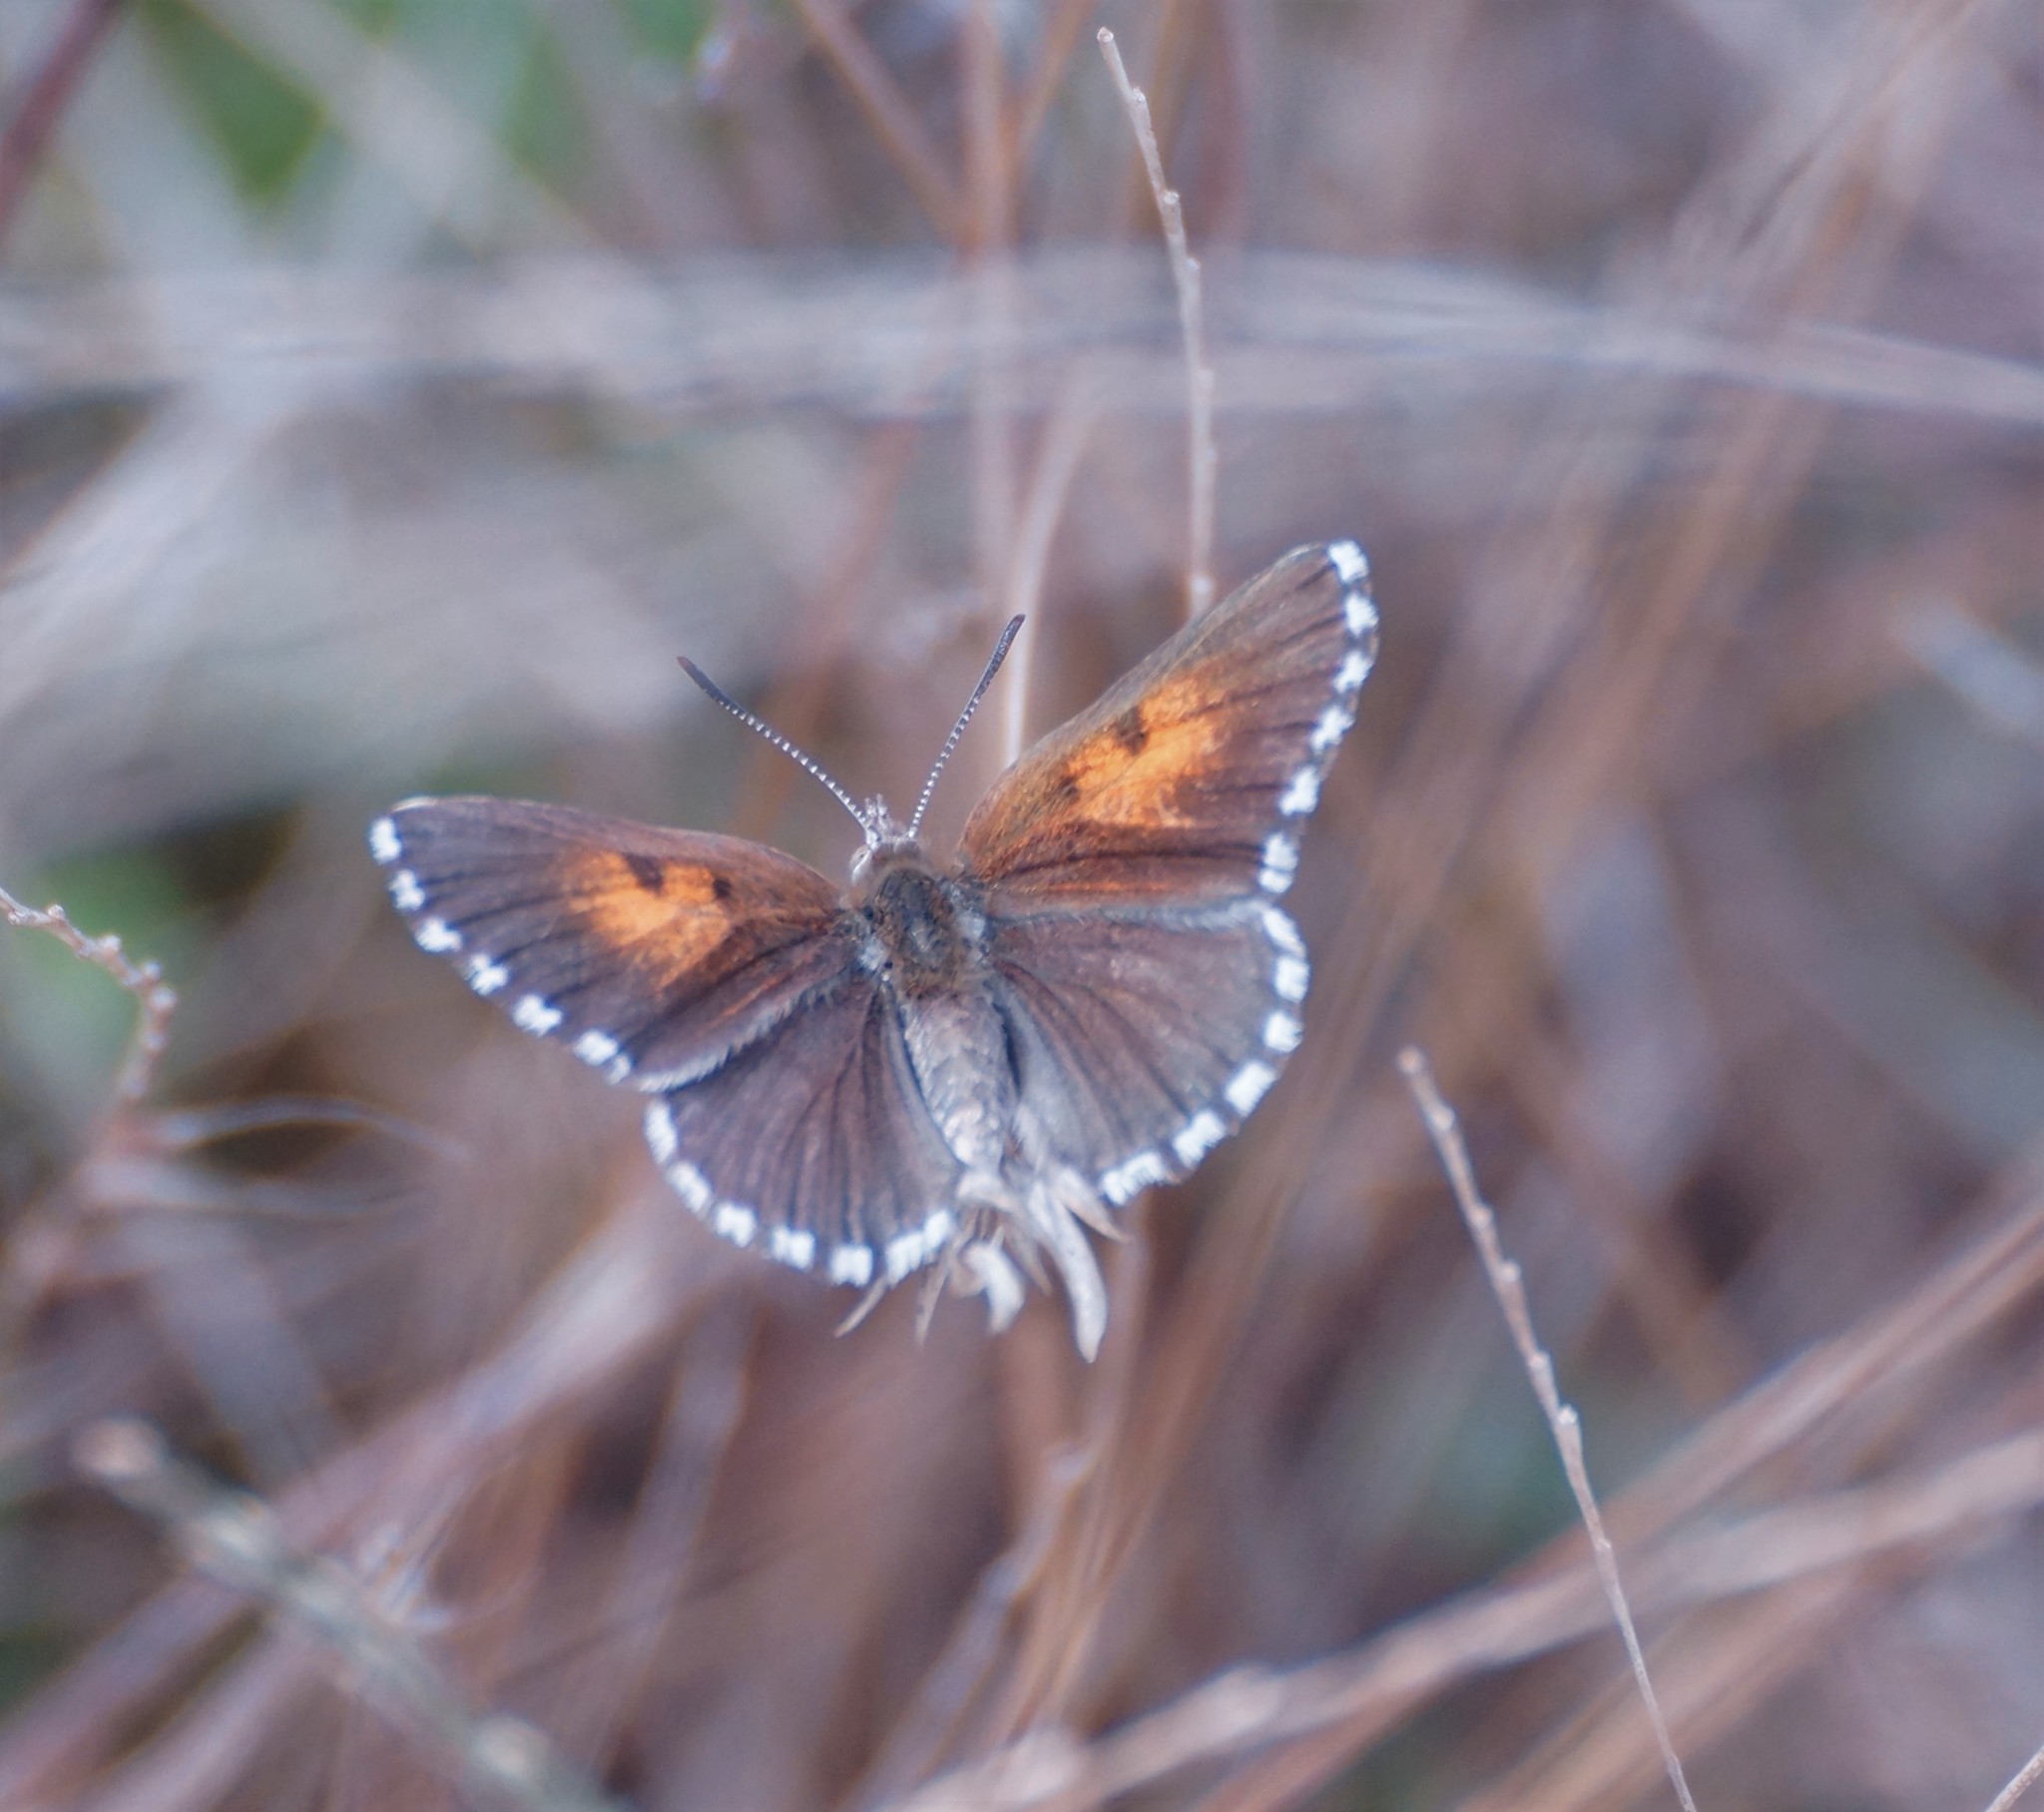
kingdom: Animalia
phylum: Arthropoda
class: Insecta
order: Lepidoptera
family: Lycaenidae
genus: Lucia
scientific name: Lucia limbaria
